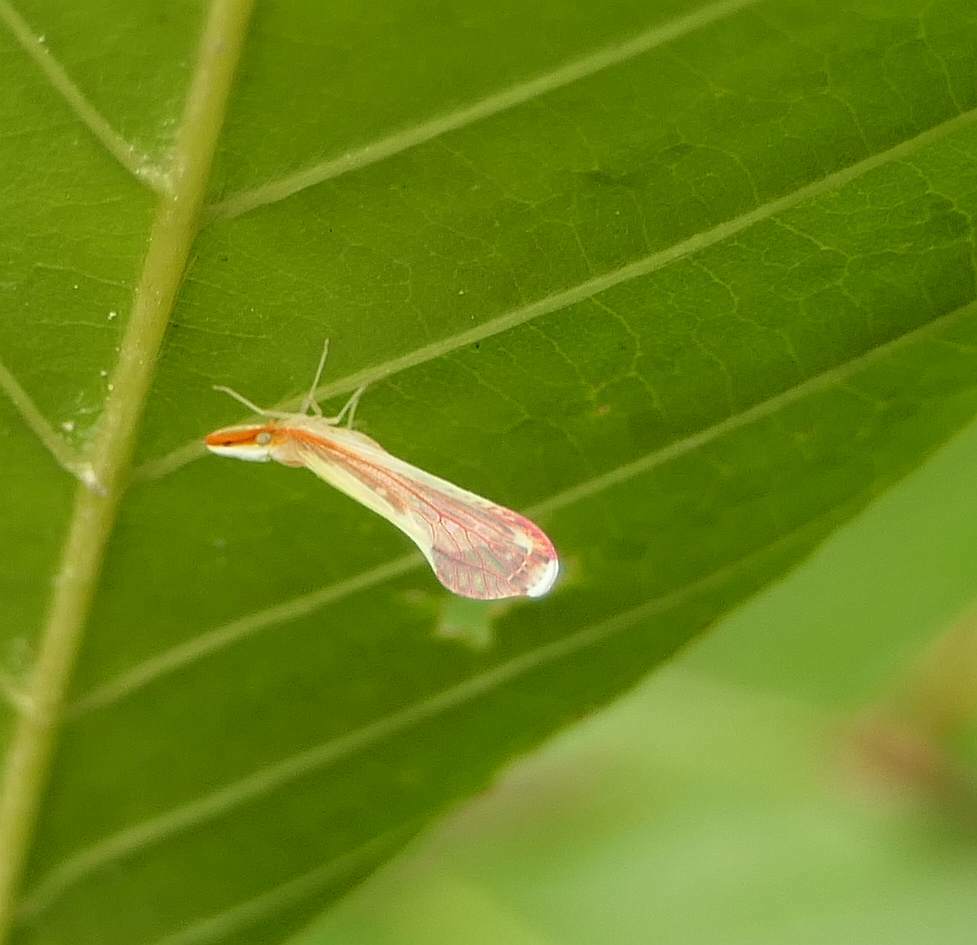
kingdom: Animalia
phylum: Arthropoda
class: Insecta
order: Hemiptera
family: Derbidae
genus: Shellenius
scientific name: Shellenius ballii
